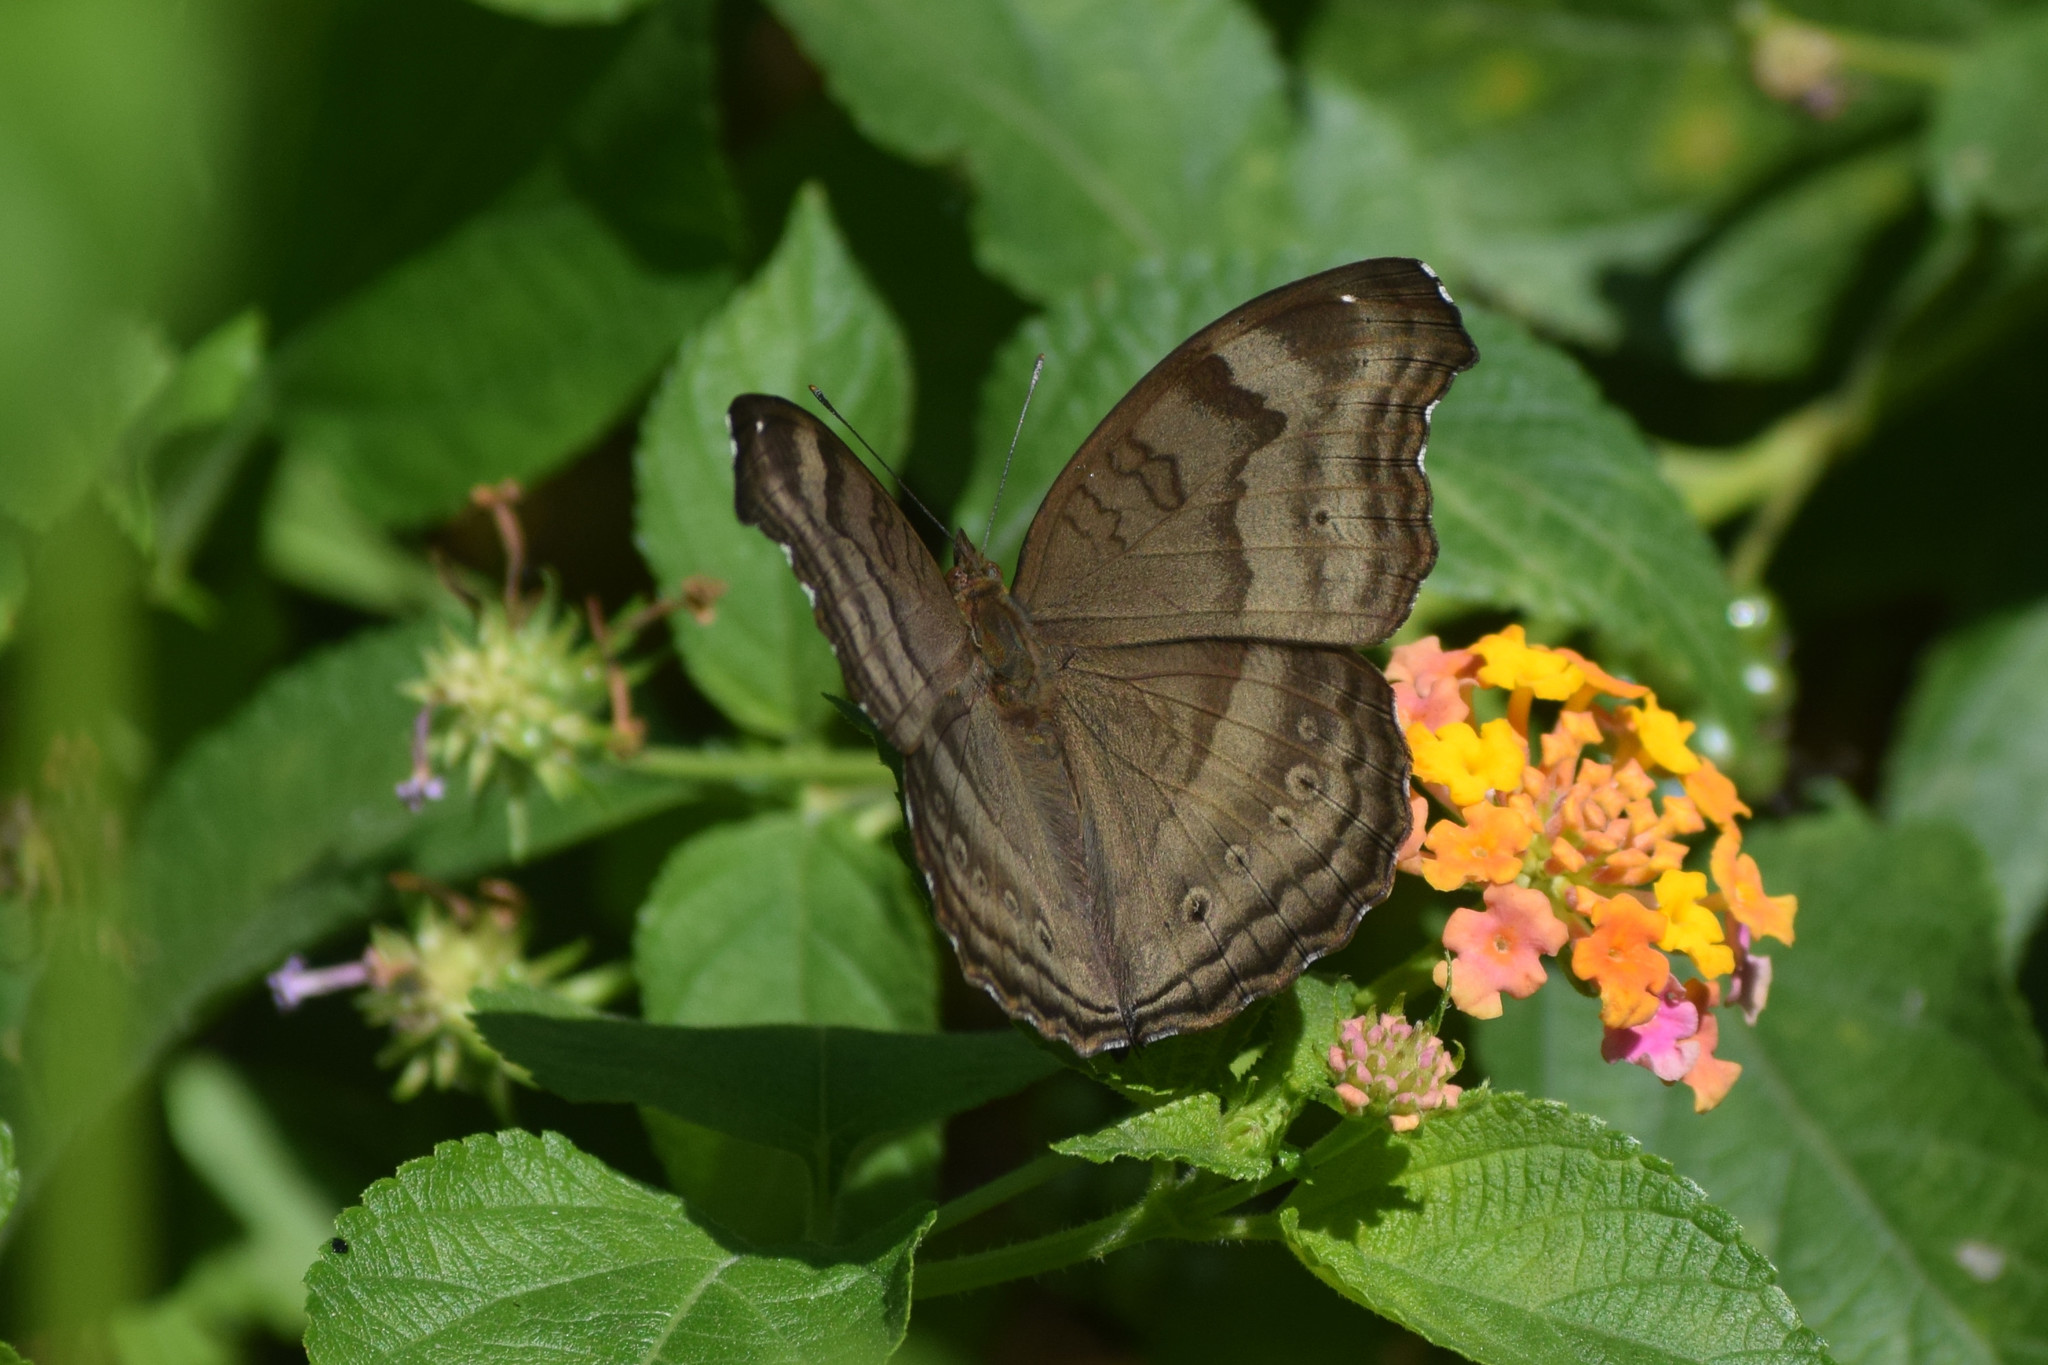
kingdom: Animalia
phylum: Arthropoda
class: Insecta
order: Lepidoptera
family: Nymphalidae
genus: Junonia
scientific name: Junonia iphita
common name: Chocolate pansy
